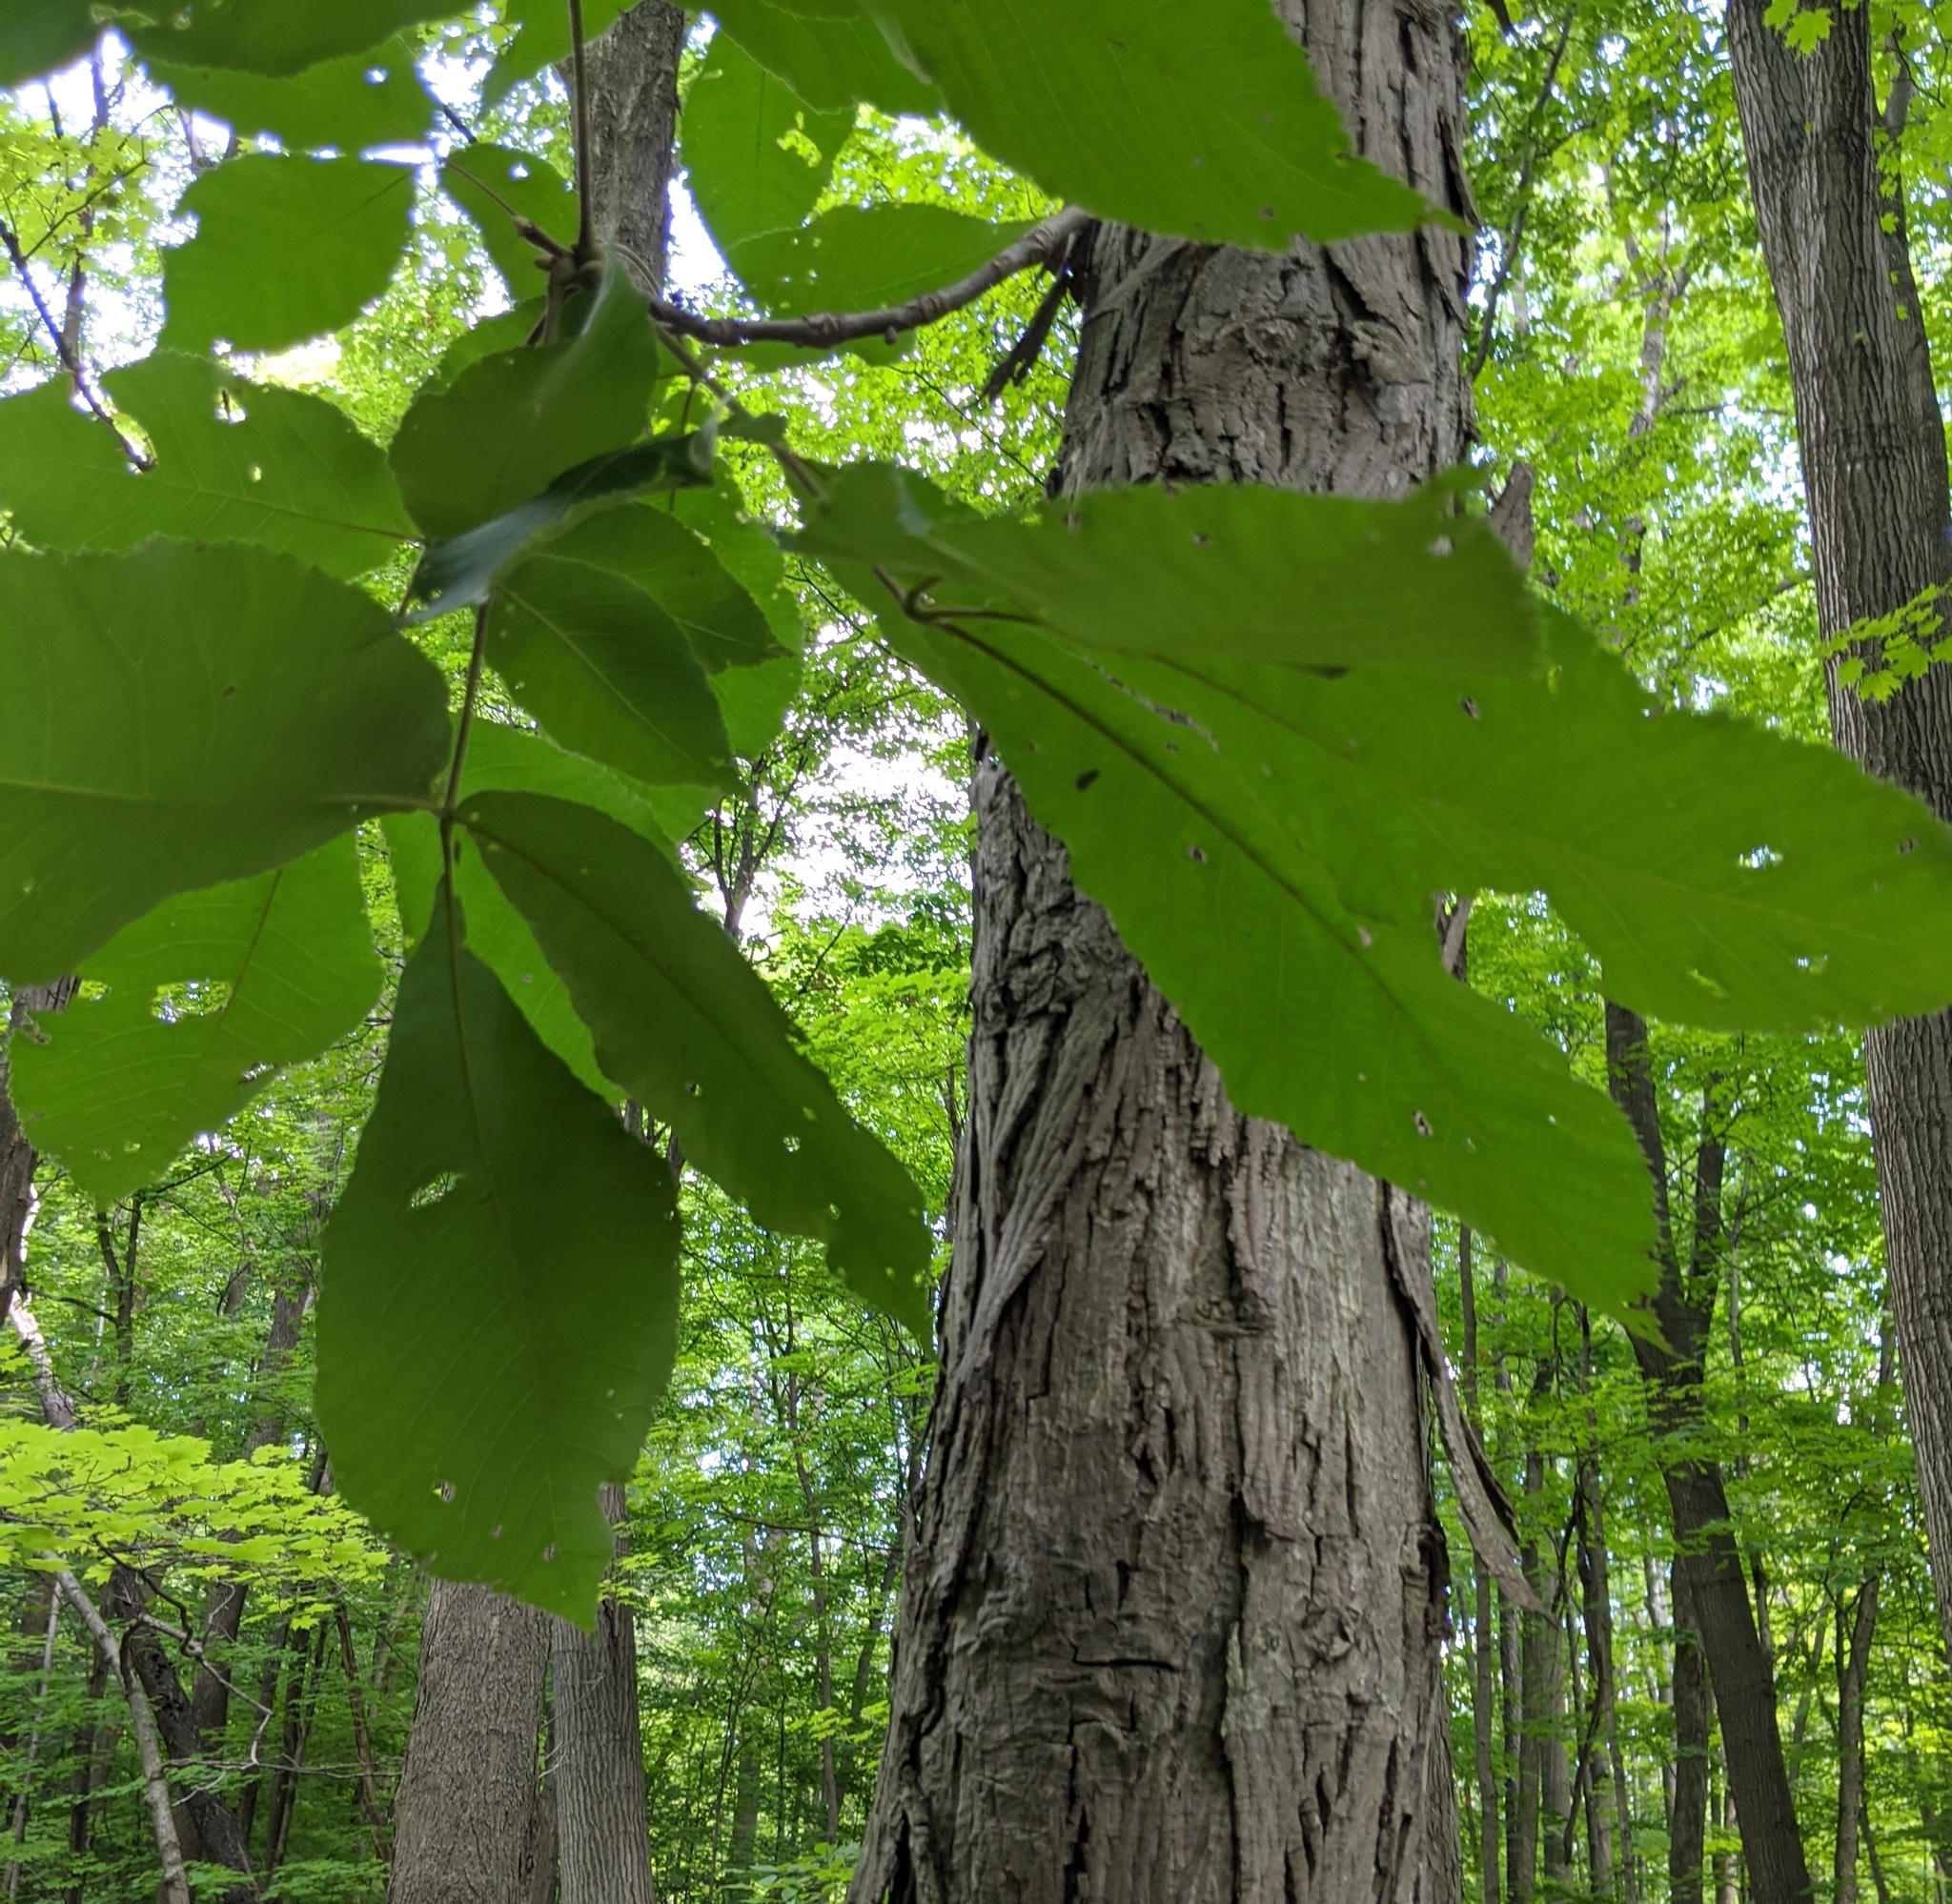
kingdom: Plantae
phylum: Tracheophyta
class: Magnoliopsida
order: Fagales
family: Juglandaceae
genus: Carya
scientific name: Carya ovata
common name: Shagbark hickory
